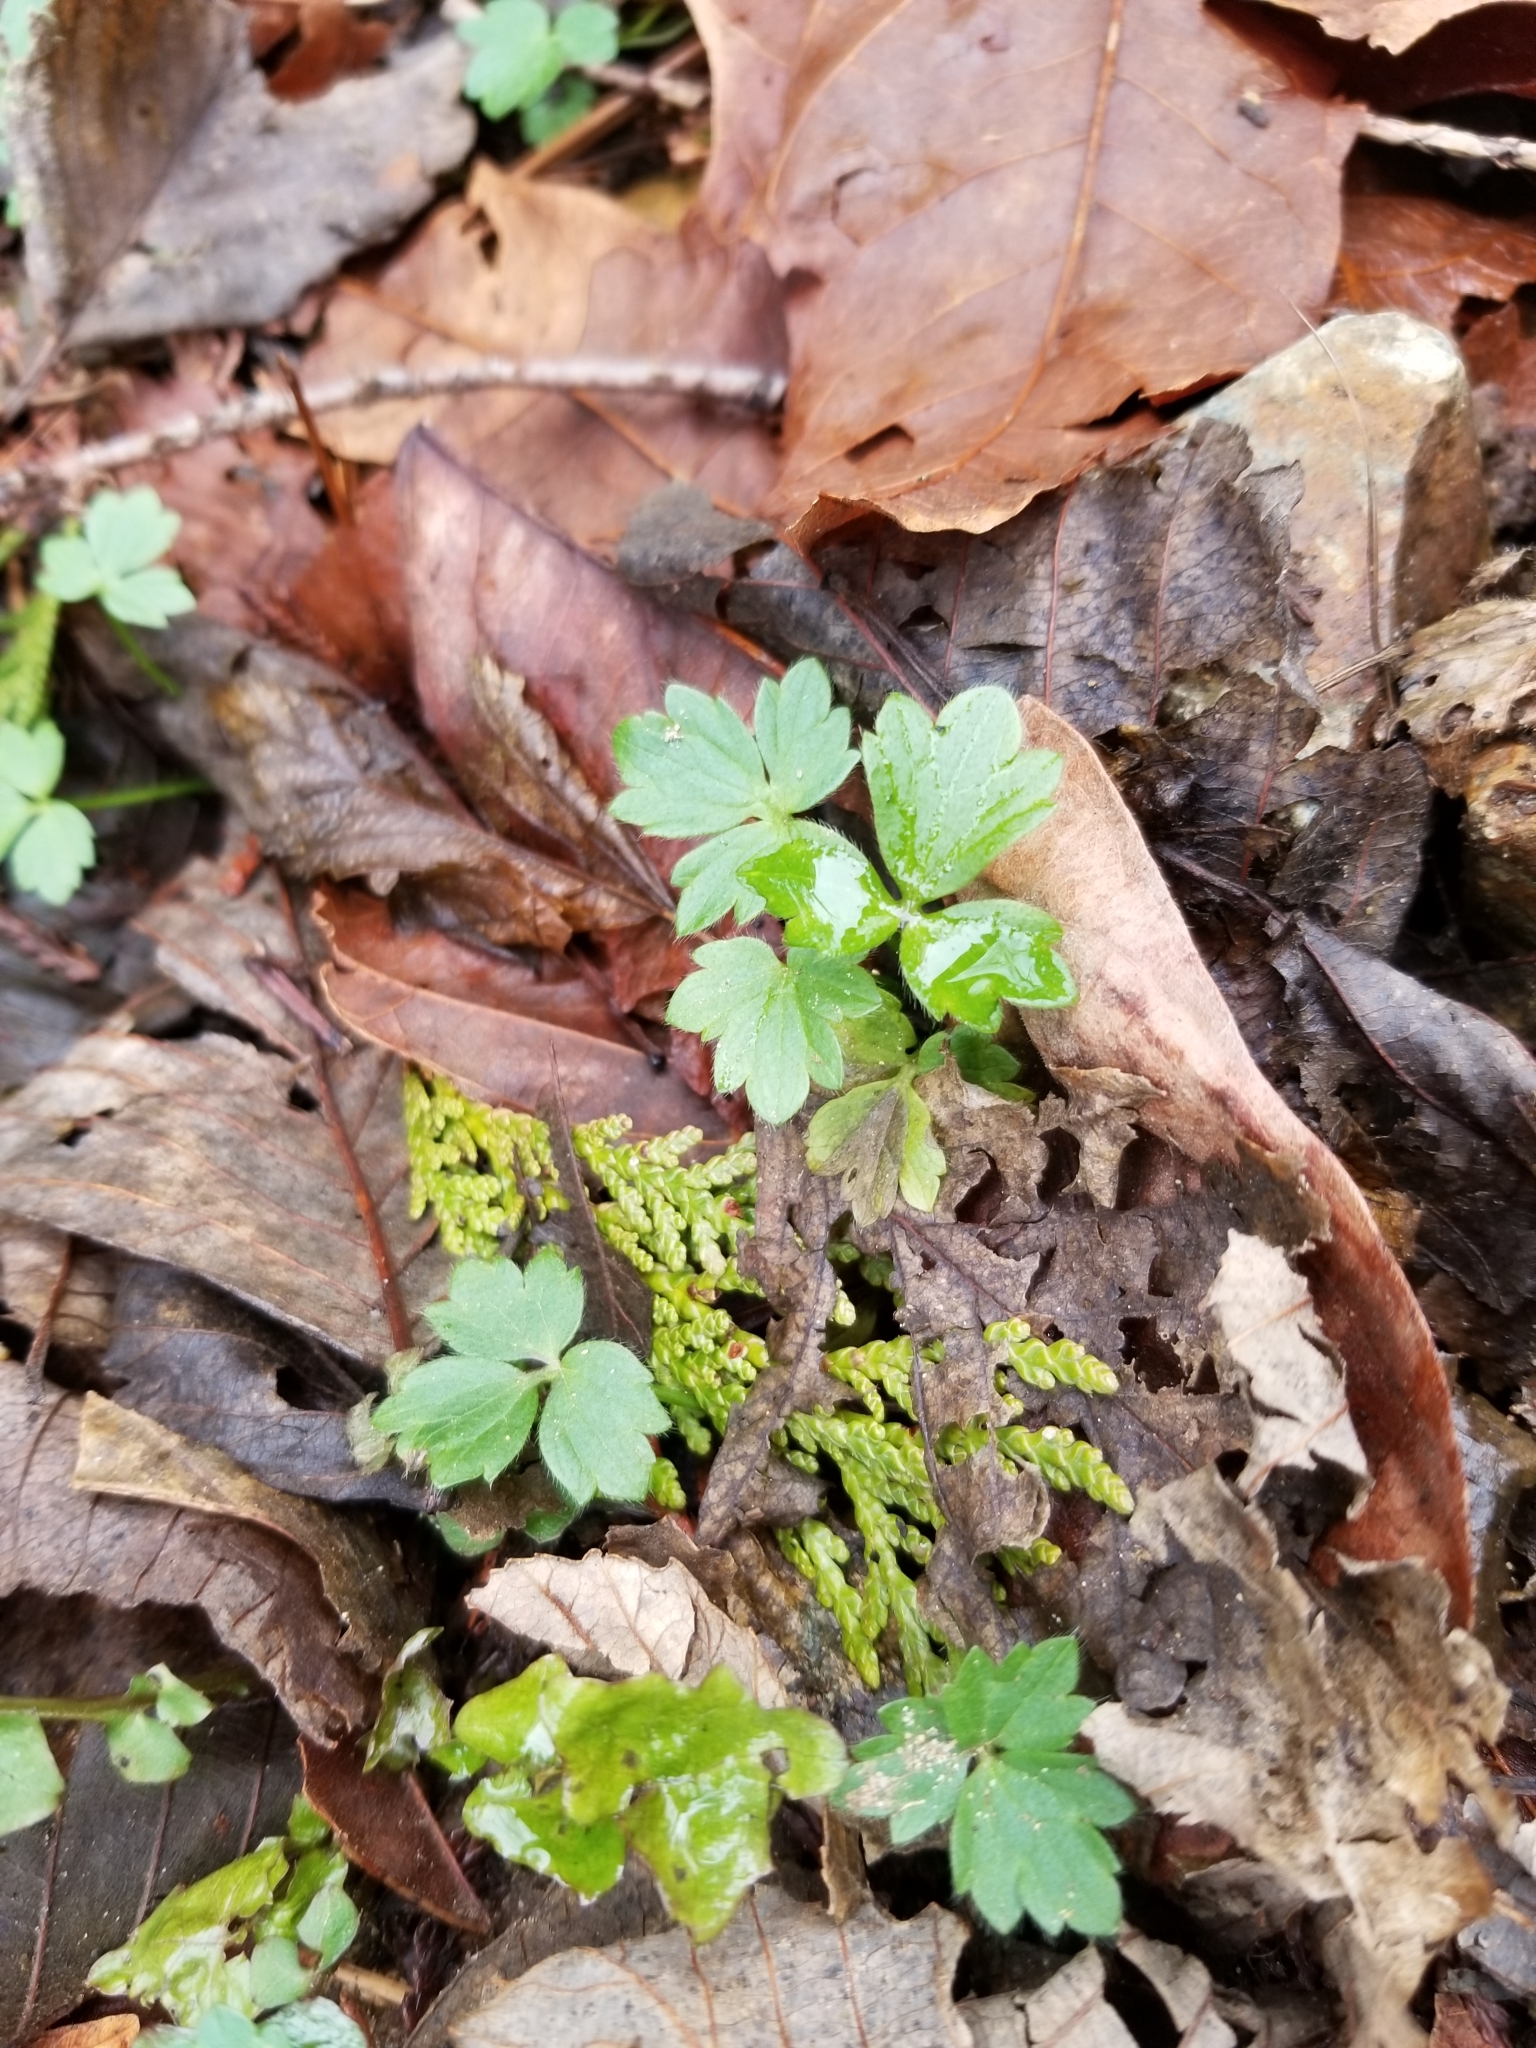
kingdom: Plantae
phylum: Tracheophyta
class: Magnoliopsida
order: Ranunculales
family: Ranunculaceae
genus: Ranunculus
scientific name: Ranunculus repens
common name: Creeping buttercup
